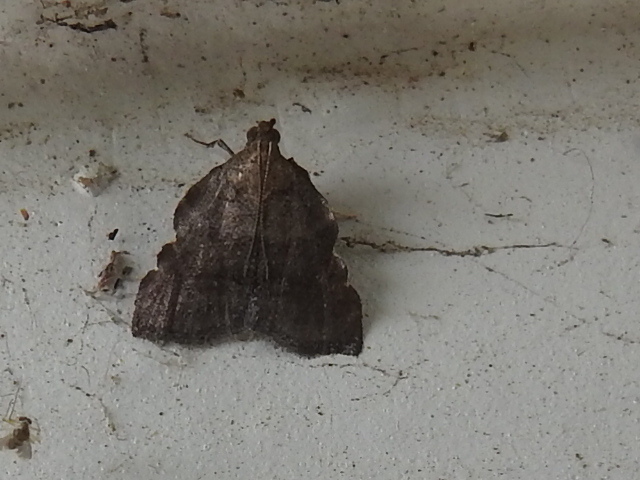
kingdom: Animalia
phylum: Arthropoda
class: Insecta
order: Lepidoptera
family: Pyralidae
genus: Salobrena
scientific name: Salobrena sincera
